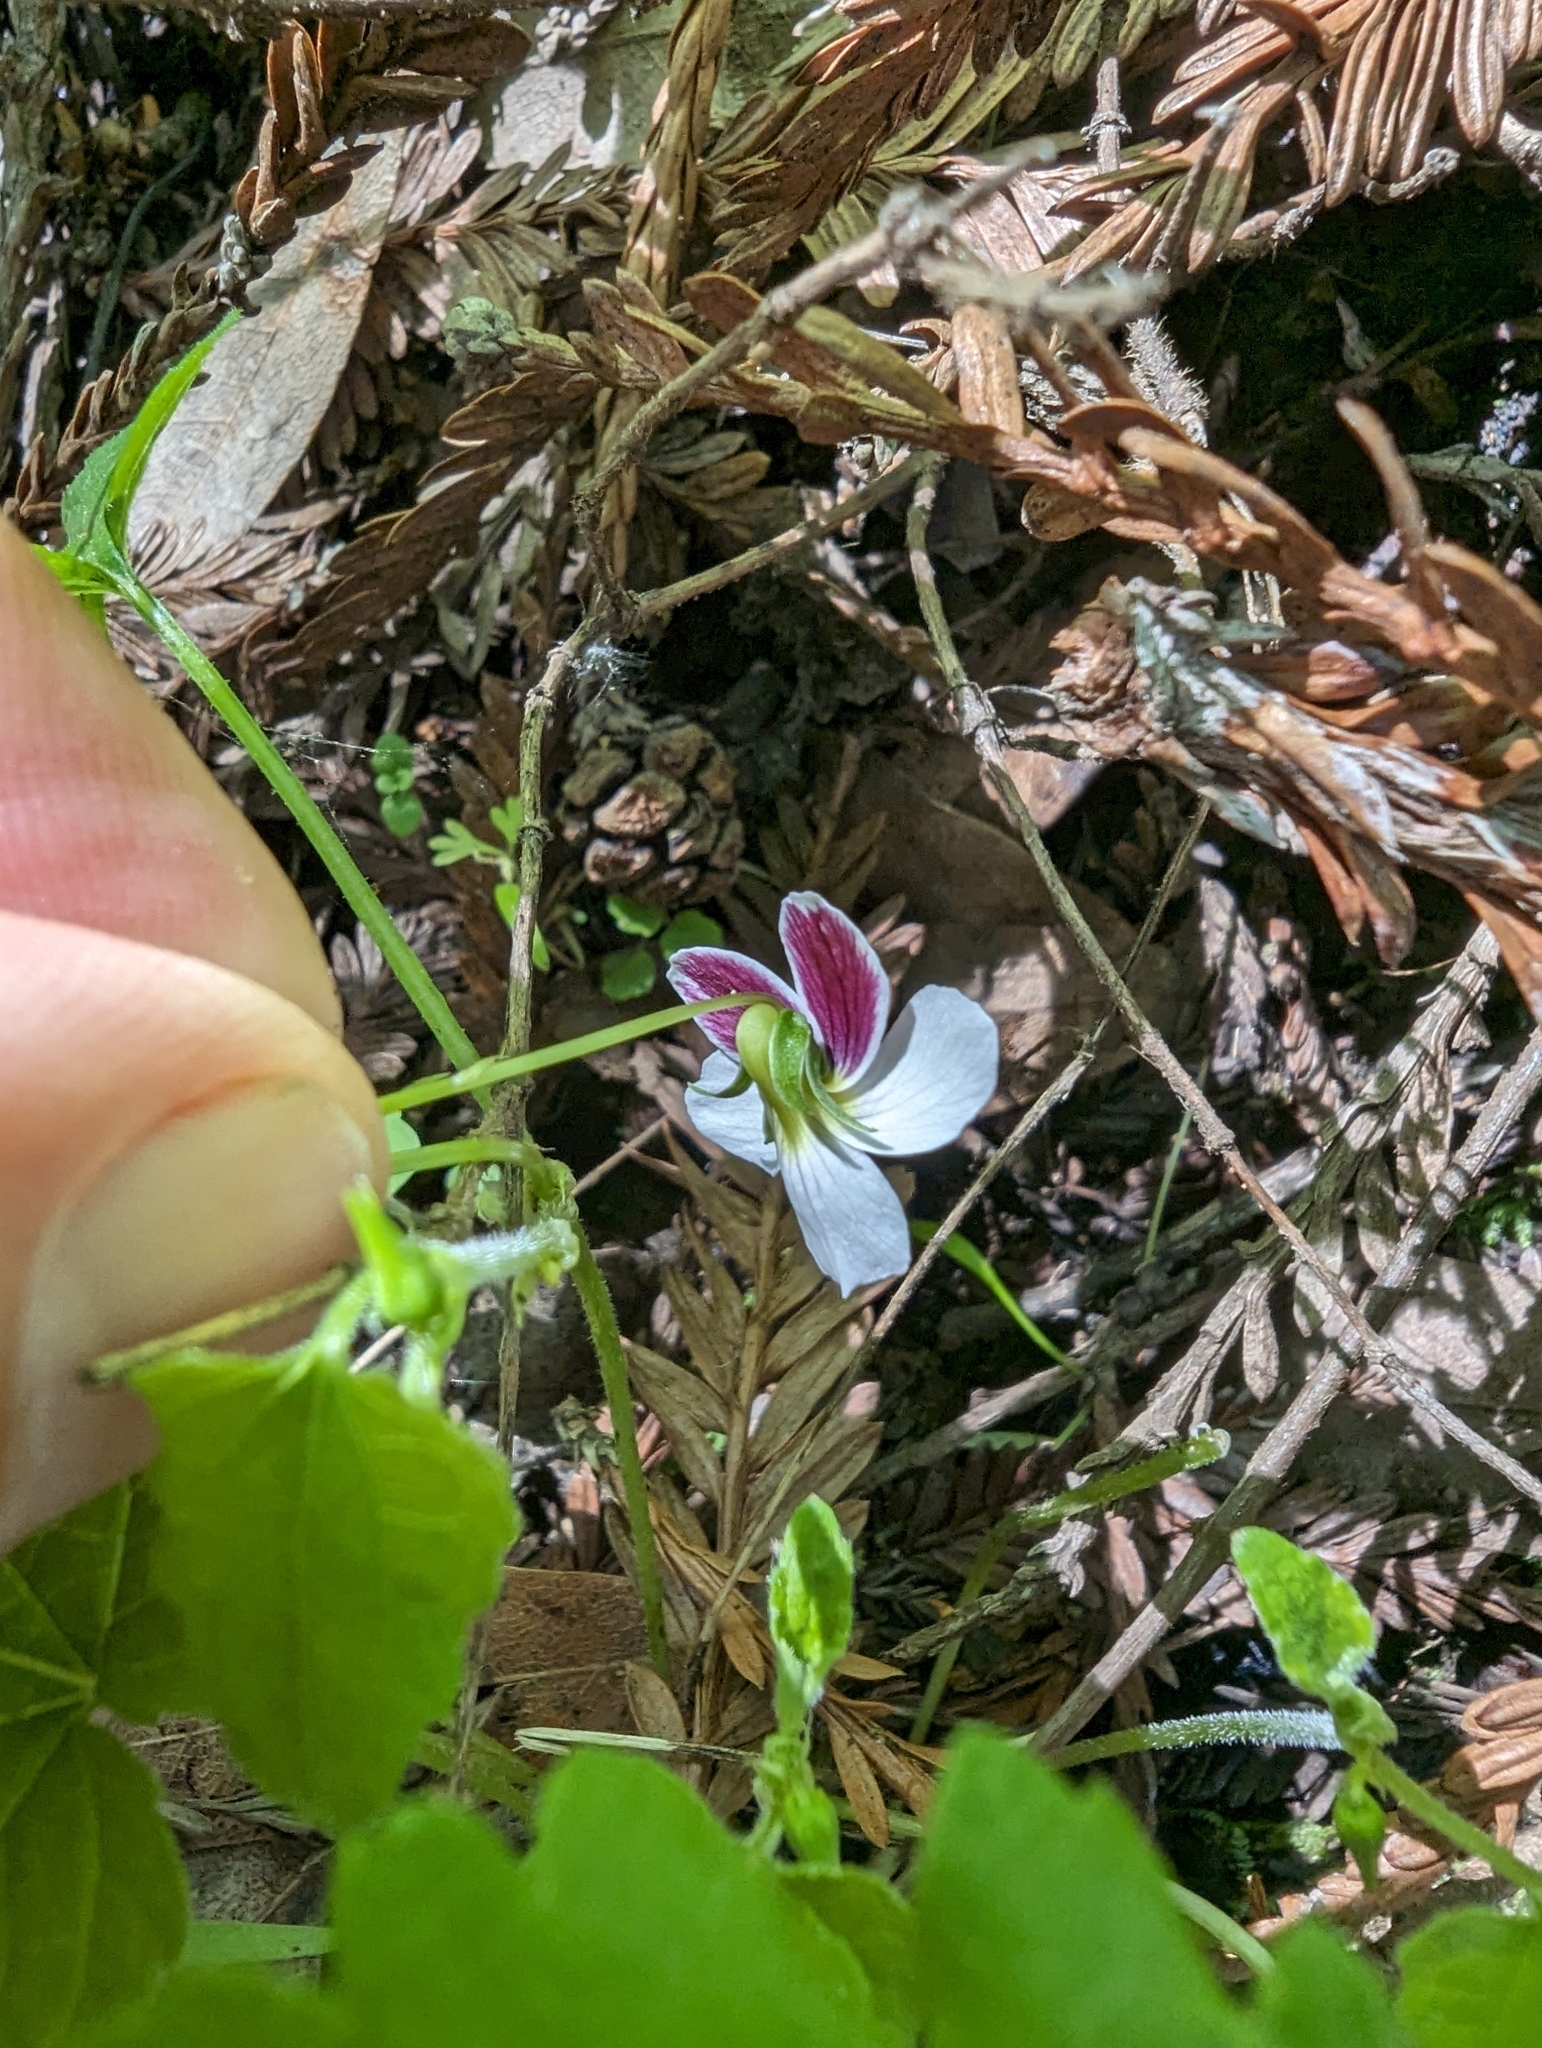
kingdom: Plantae
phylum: Tracheophyta
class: Magnoliopsida
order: Malpighiales
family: Violaceae
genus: Viola
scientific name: Viola ocellata
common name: Western heart's ease
